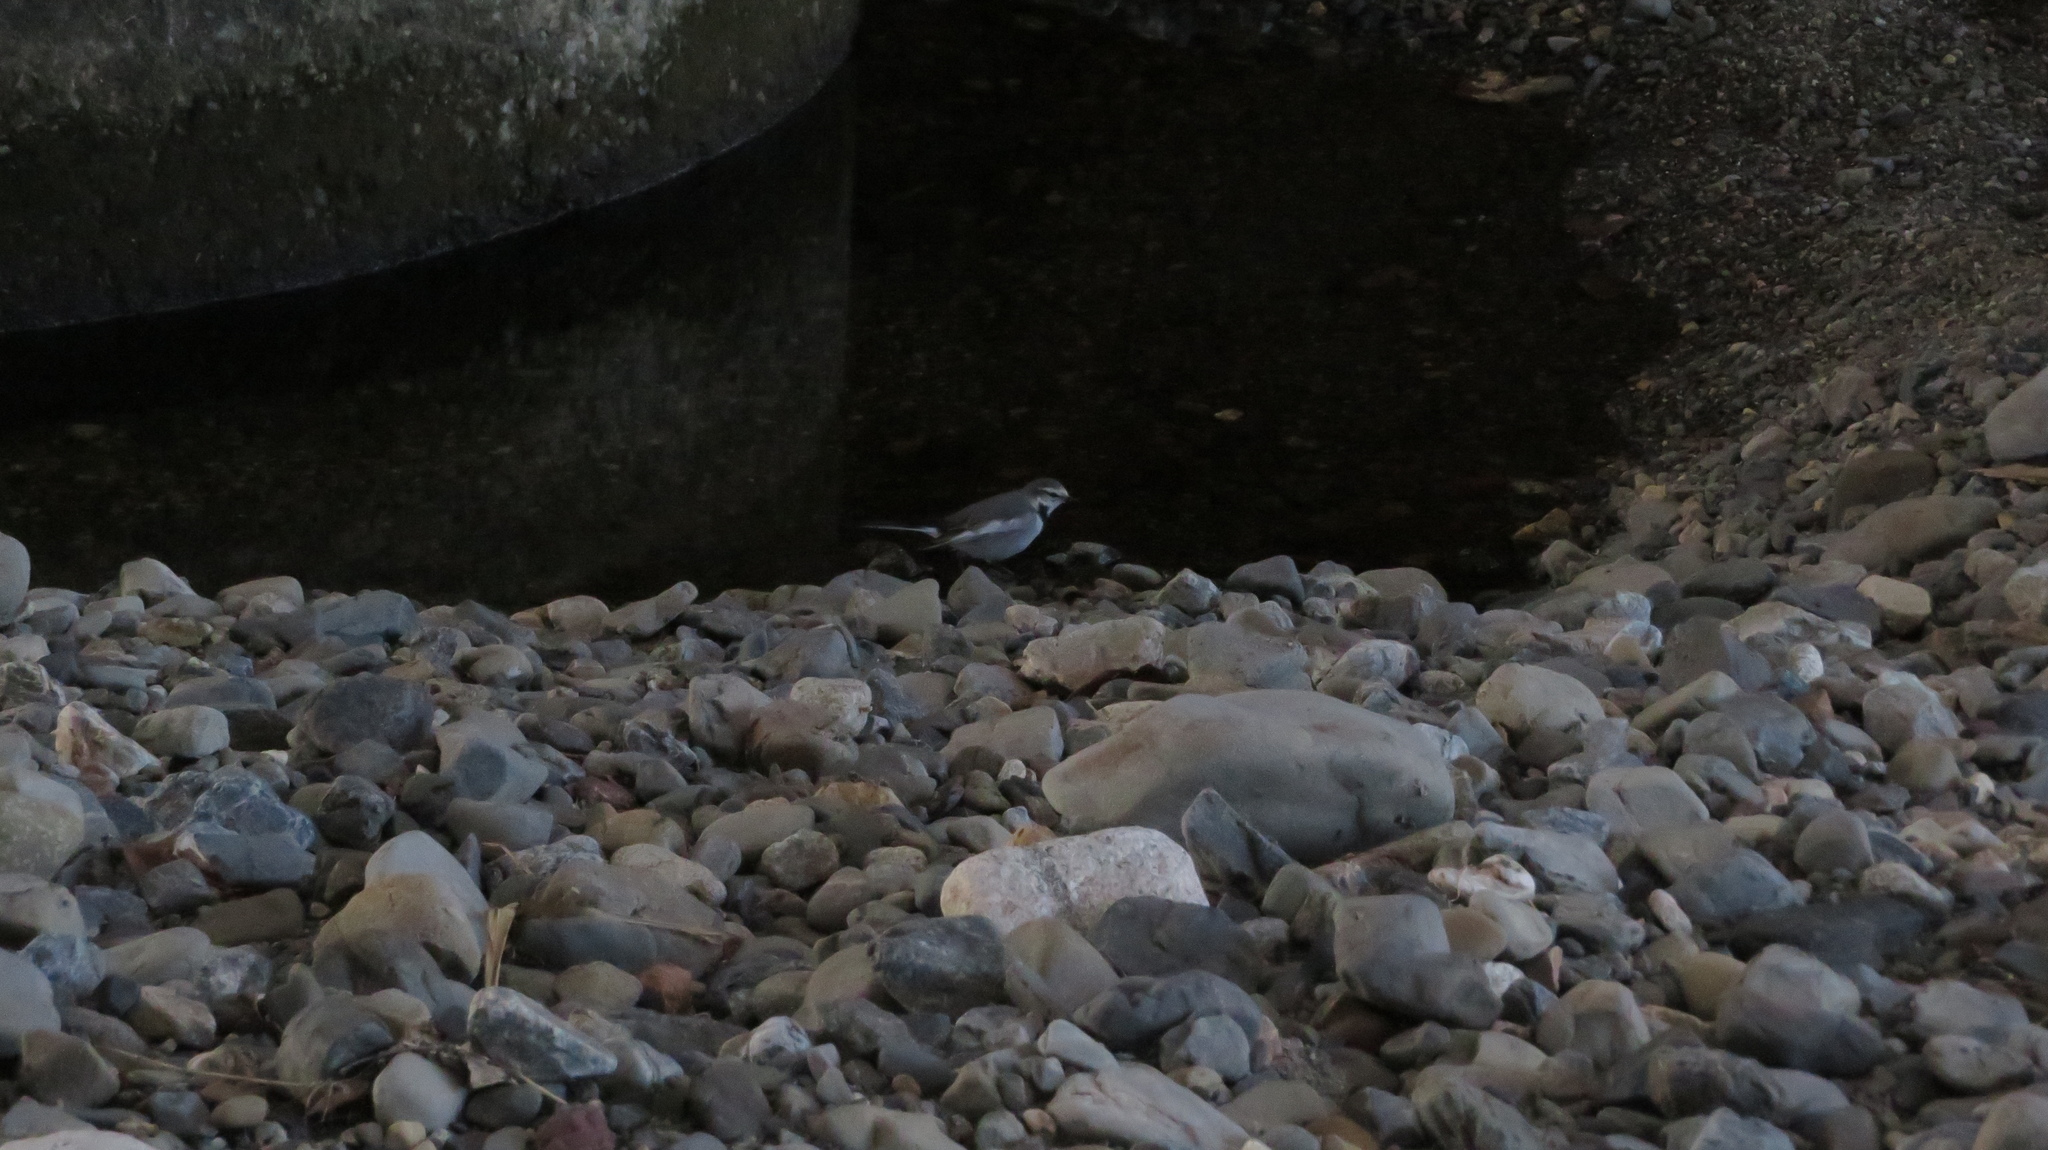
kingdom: Animalia
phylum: Chordata
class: Aves
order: Passeriformes
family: Motacillidae
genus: Motacilla
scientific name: Motacilla alba
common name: White wagtail
